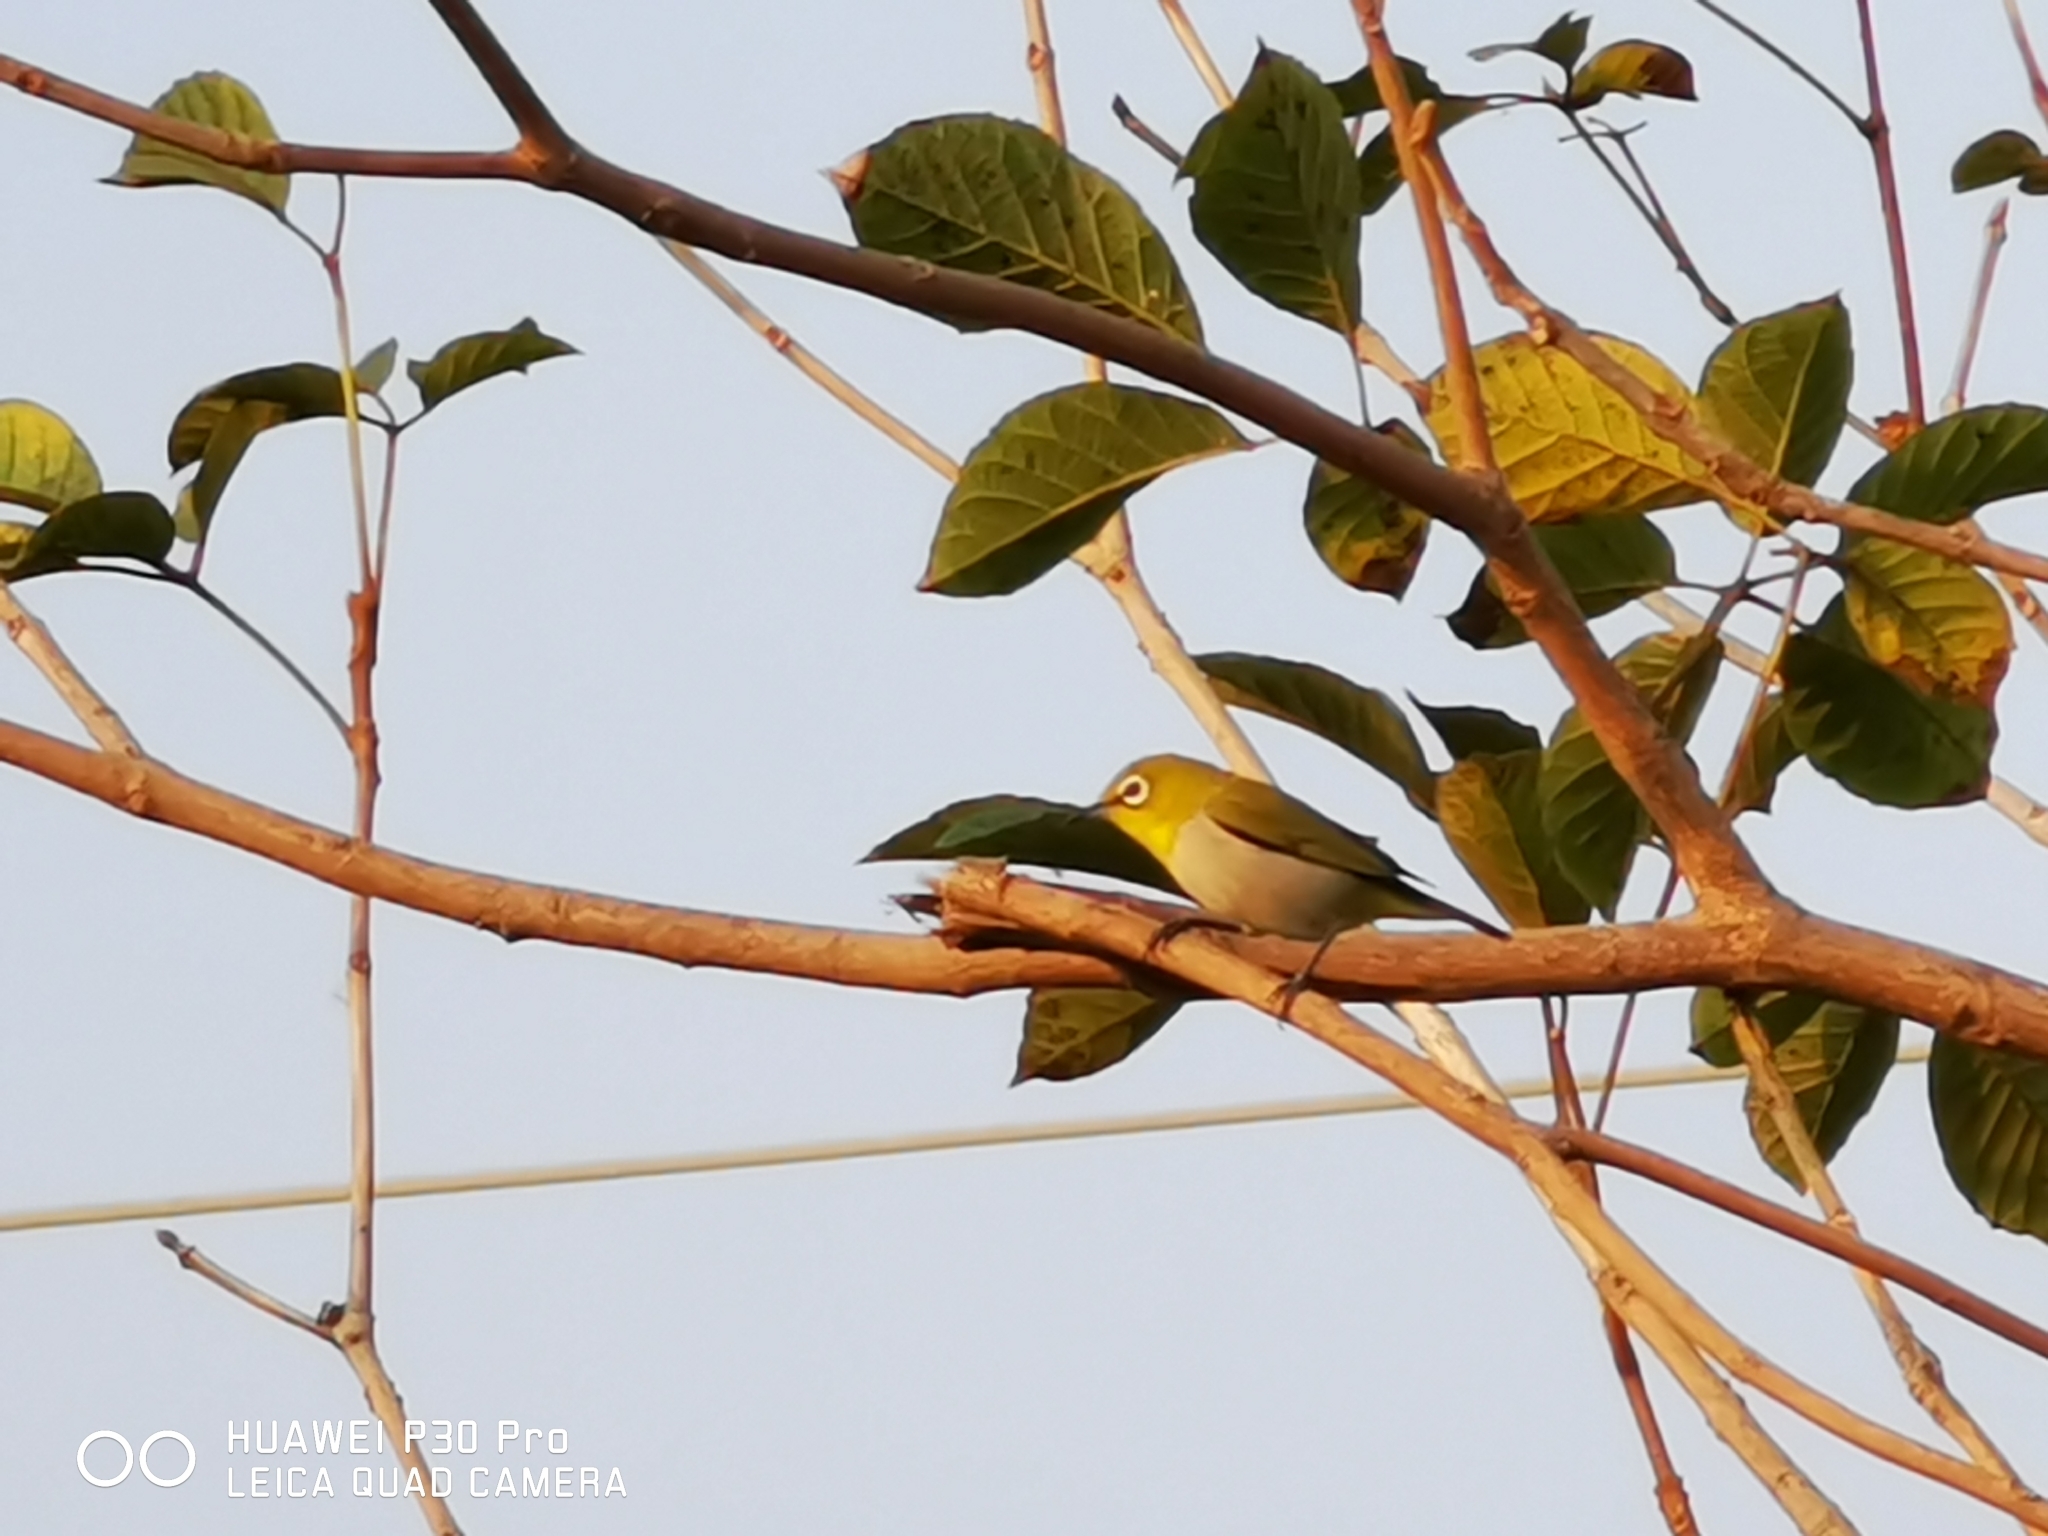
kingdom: Animalia
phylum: Chordata
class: Aves
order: Passeriformes
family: Zosteropidae
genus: Zosterops
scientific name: Zosterops simplex
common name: Swinhoe's white-eye
